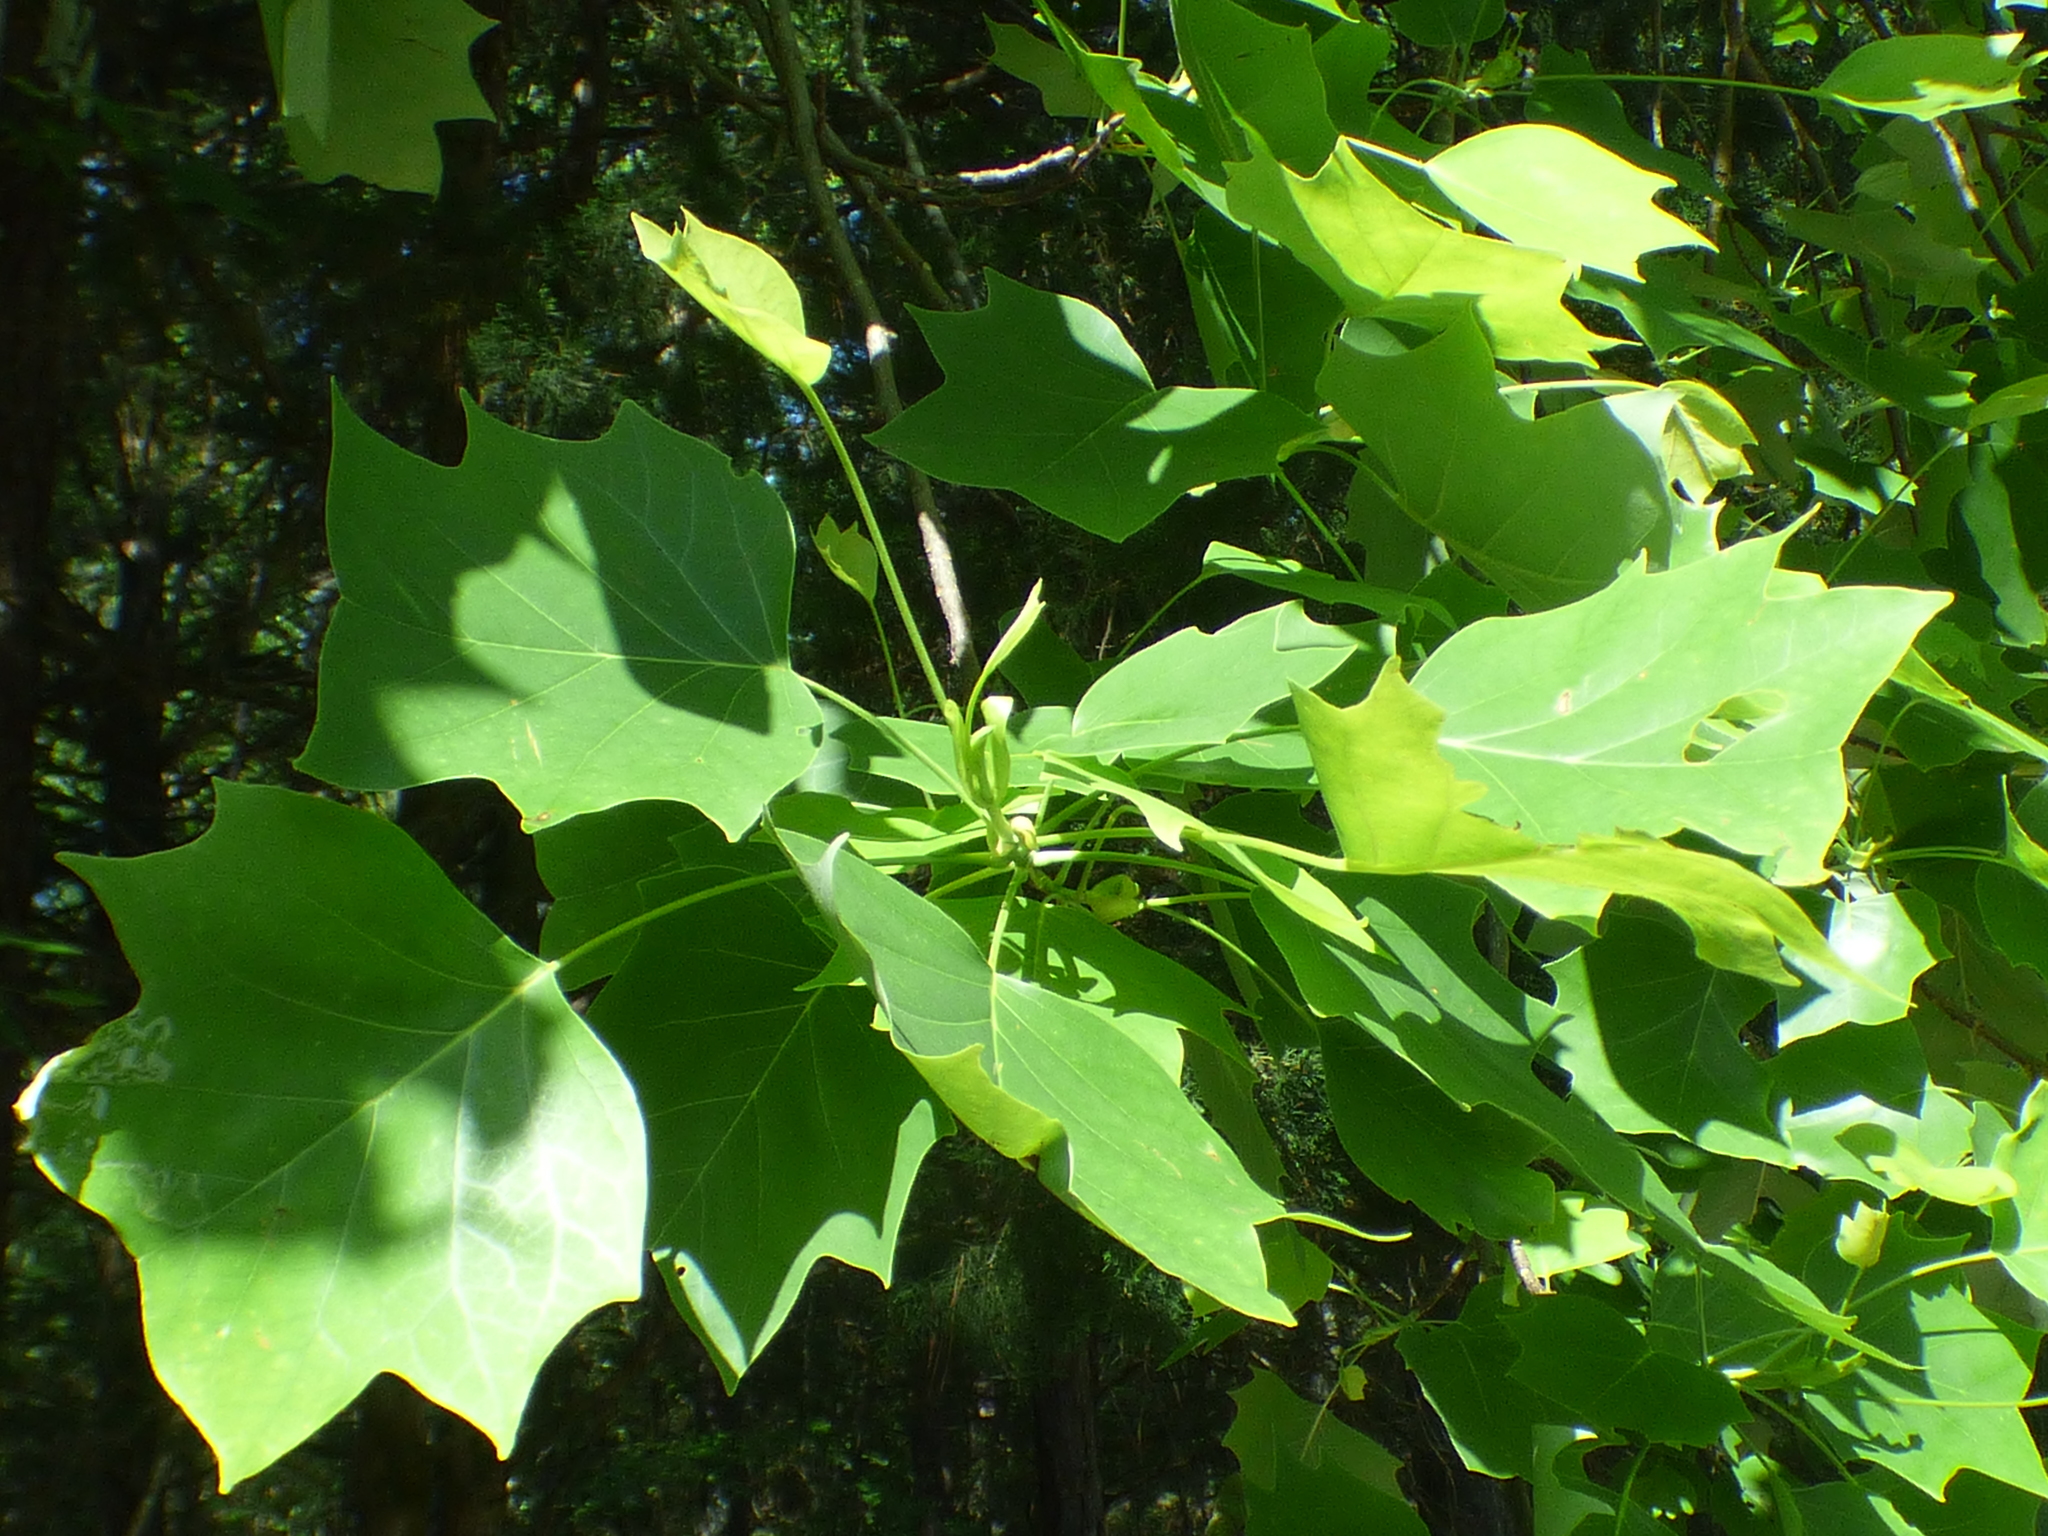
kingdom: Plantae
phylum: Tracheophyta
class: Magnoliopsida
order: Magnoliales
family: Magnoliaceae
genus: Liriodendron
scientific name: Liriodendron tulipifera
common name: Tulip tree
